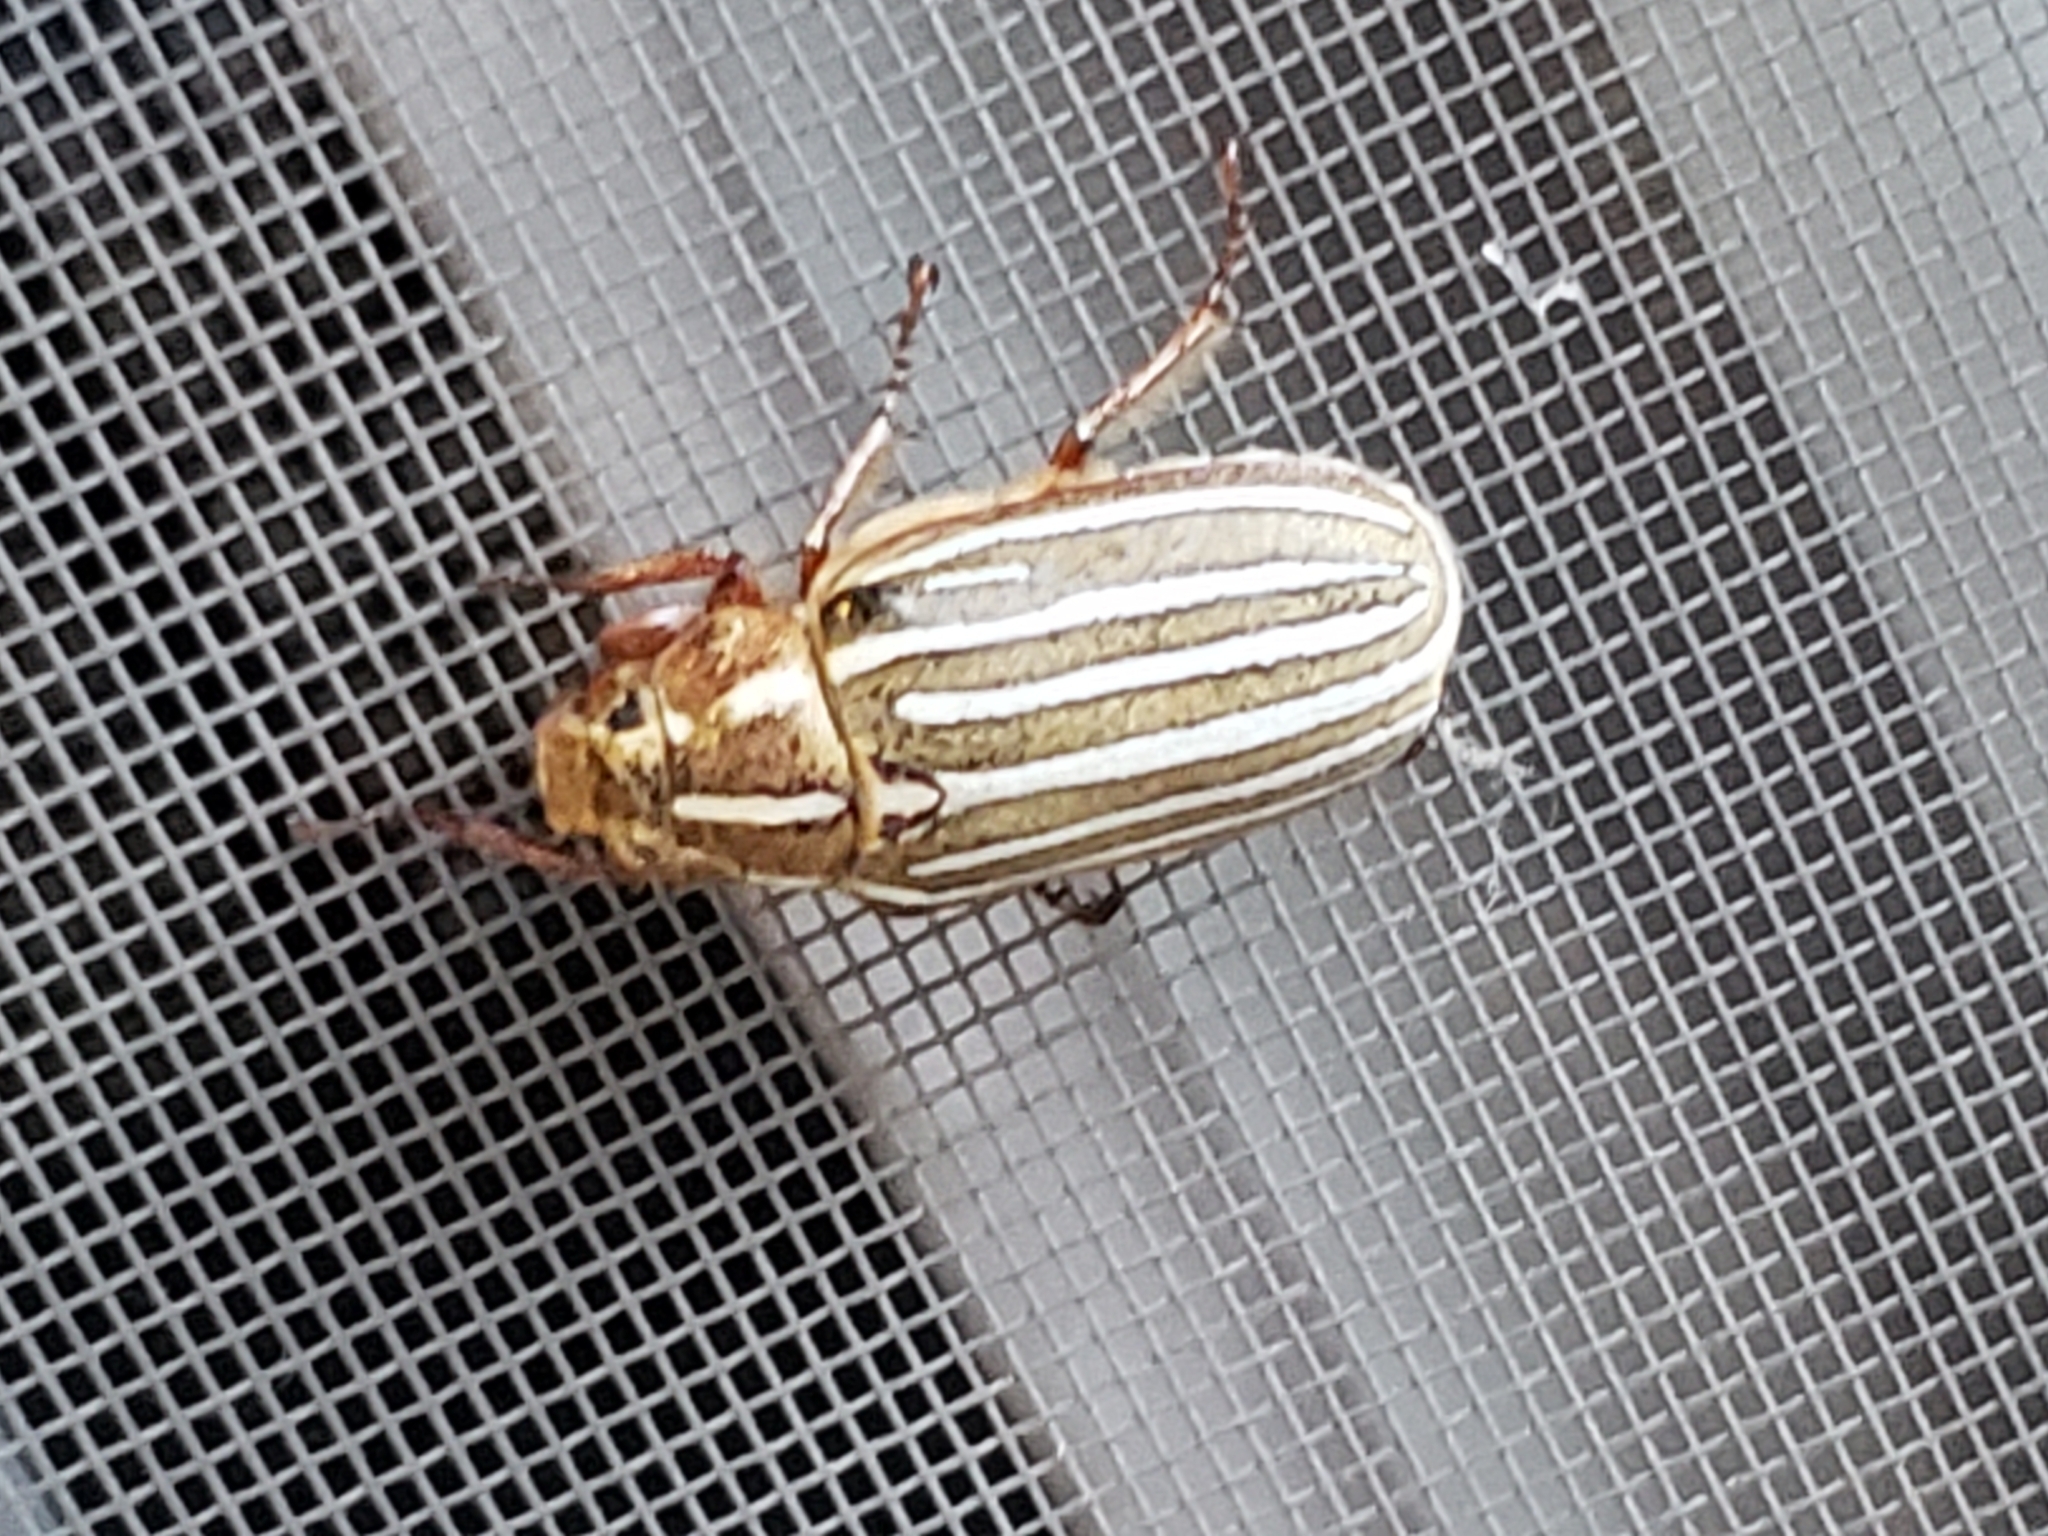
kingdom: Animalia
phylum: Arthropoda
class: Insecta
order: Coleoptera
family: Scarabaeidae
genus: Polyphylla
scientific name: Polyphylla decemlineata
